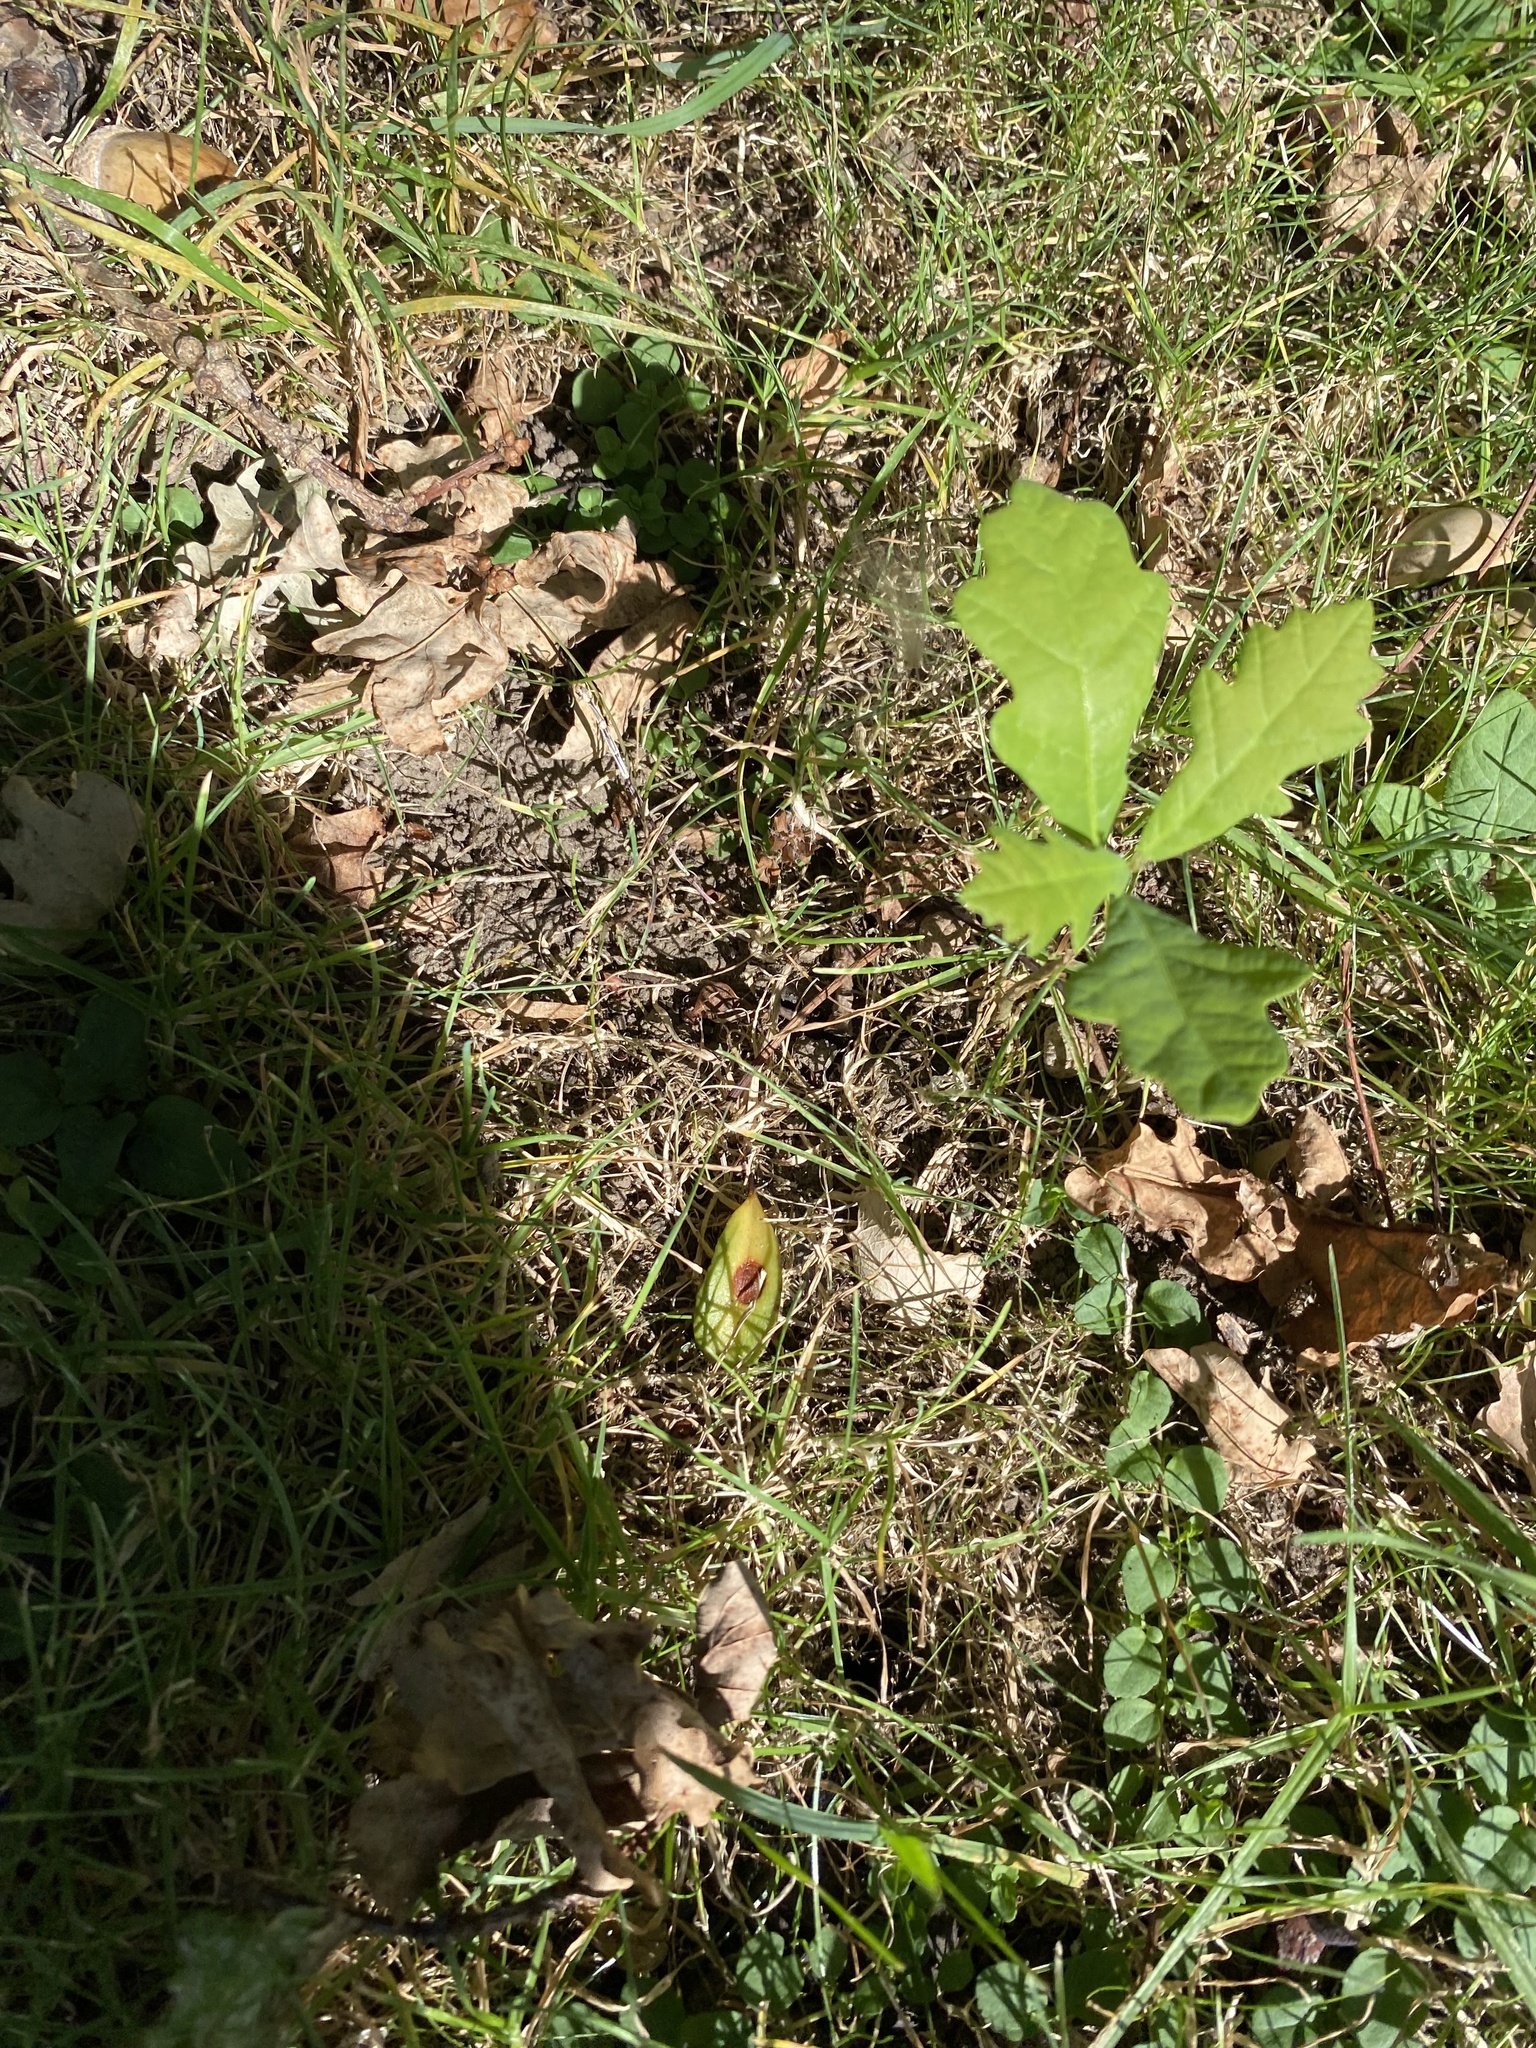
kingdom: Plantae
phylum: Tracheophyta
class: Magnoliopsida
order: Fagales
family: Fagaceae
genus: Quercus
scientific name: Quercus robur
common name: Pedunculate oak
